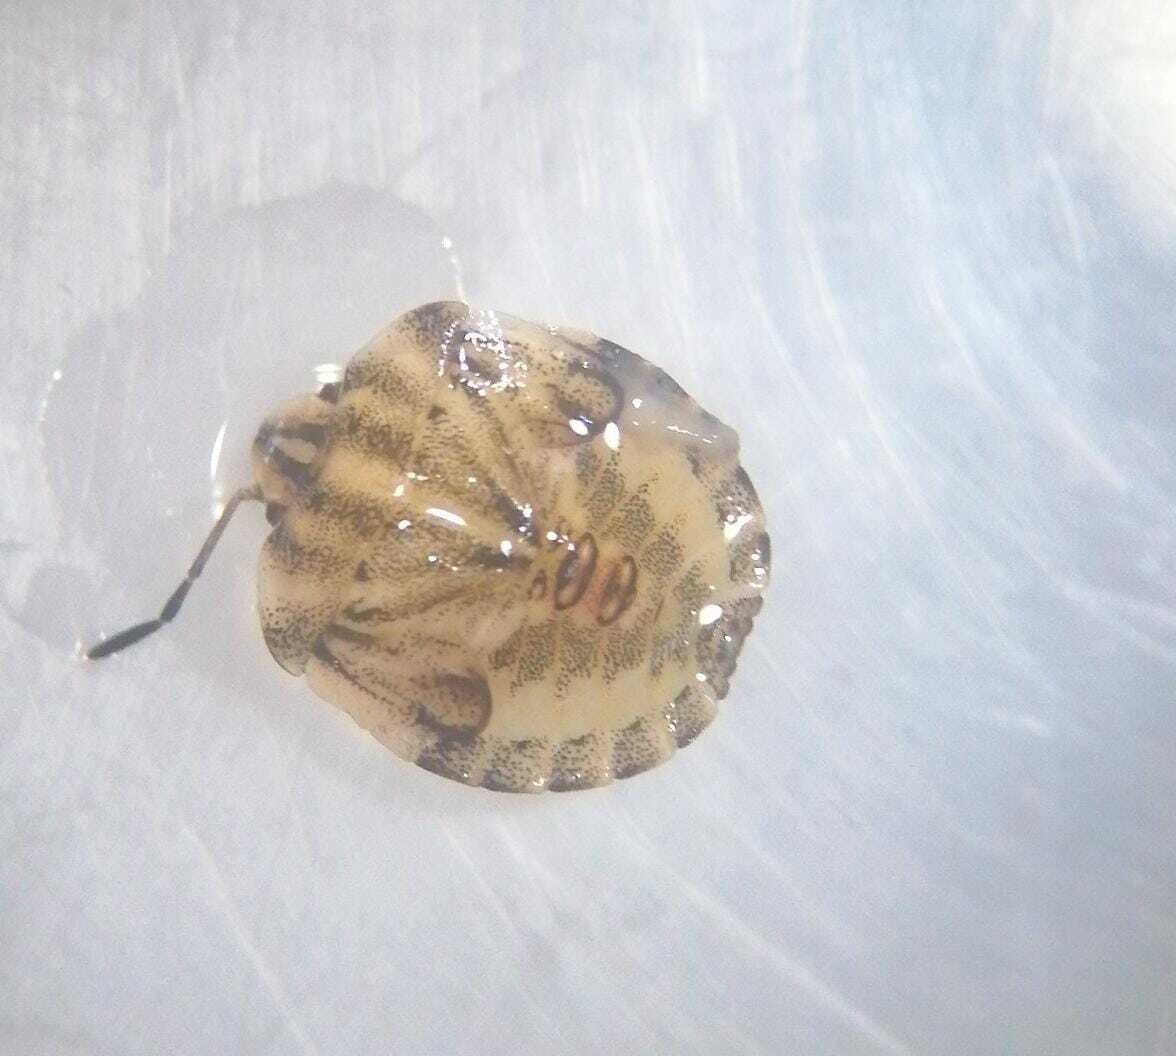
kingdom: Animalia
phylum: Arthropoda
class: Insecta
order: Hemiptera
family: Pentatomidae
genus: Graphosoma
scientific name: Graphosoma italicum
